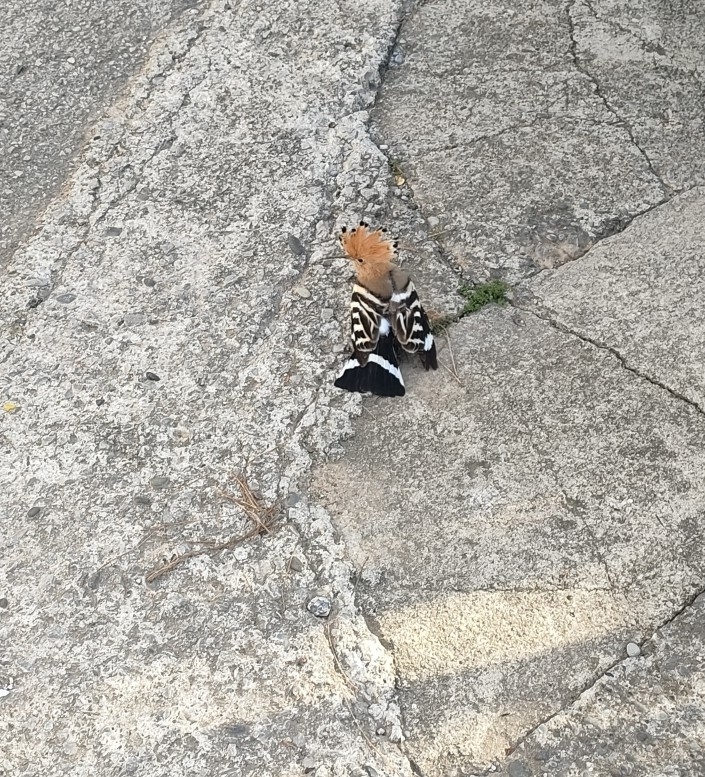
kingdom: Animalia
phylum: Chordata
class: Aves
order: Bucerotiformes
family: Upupidae
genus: Upupa
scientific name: Upupa epops
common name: Eurasian hoopoe
